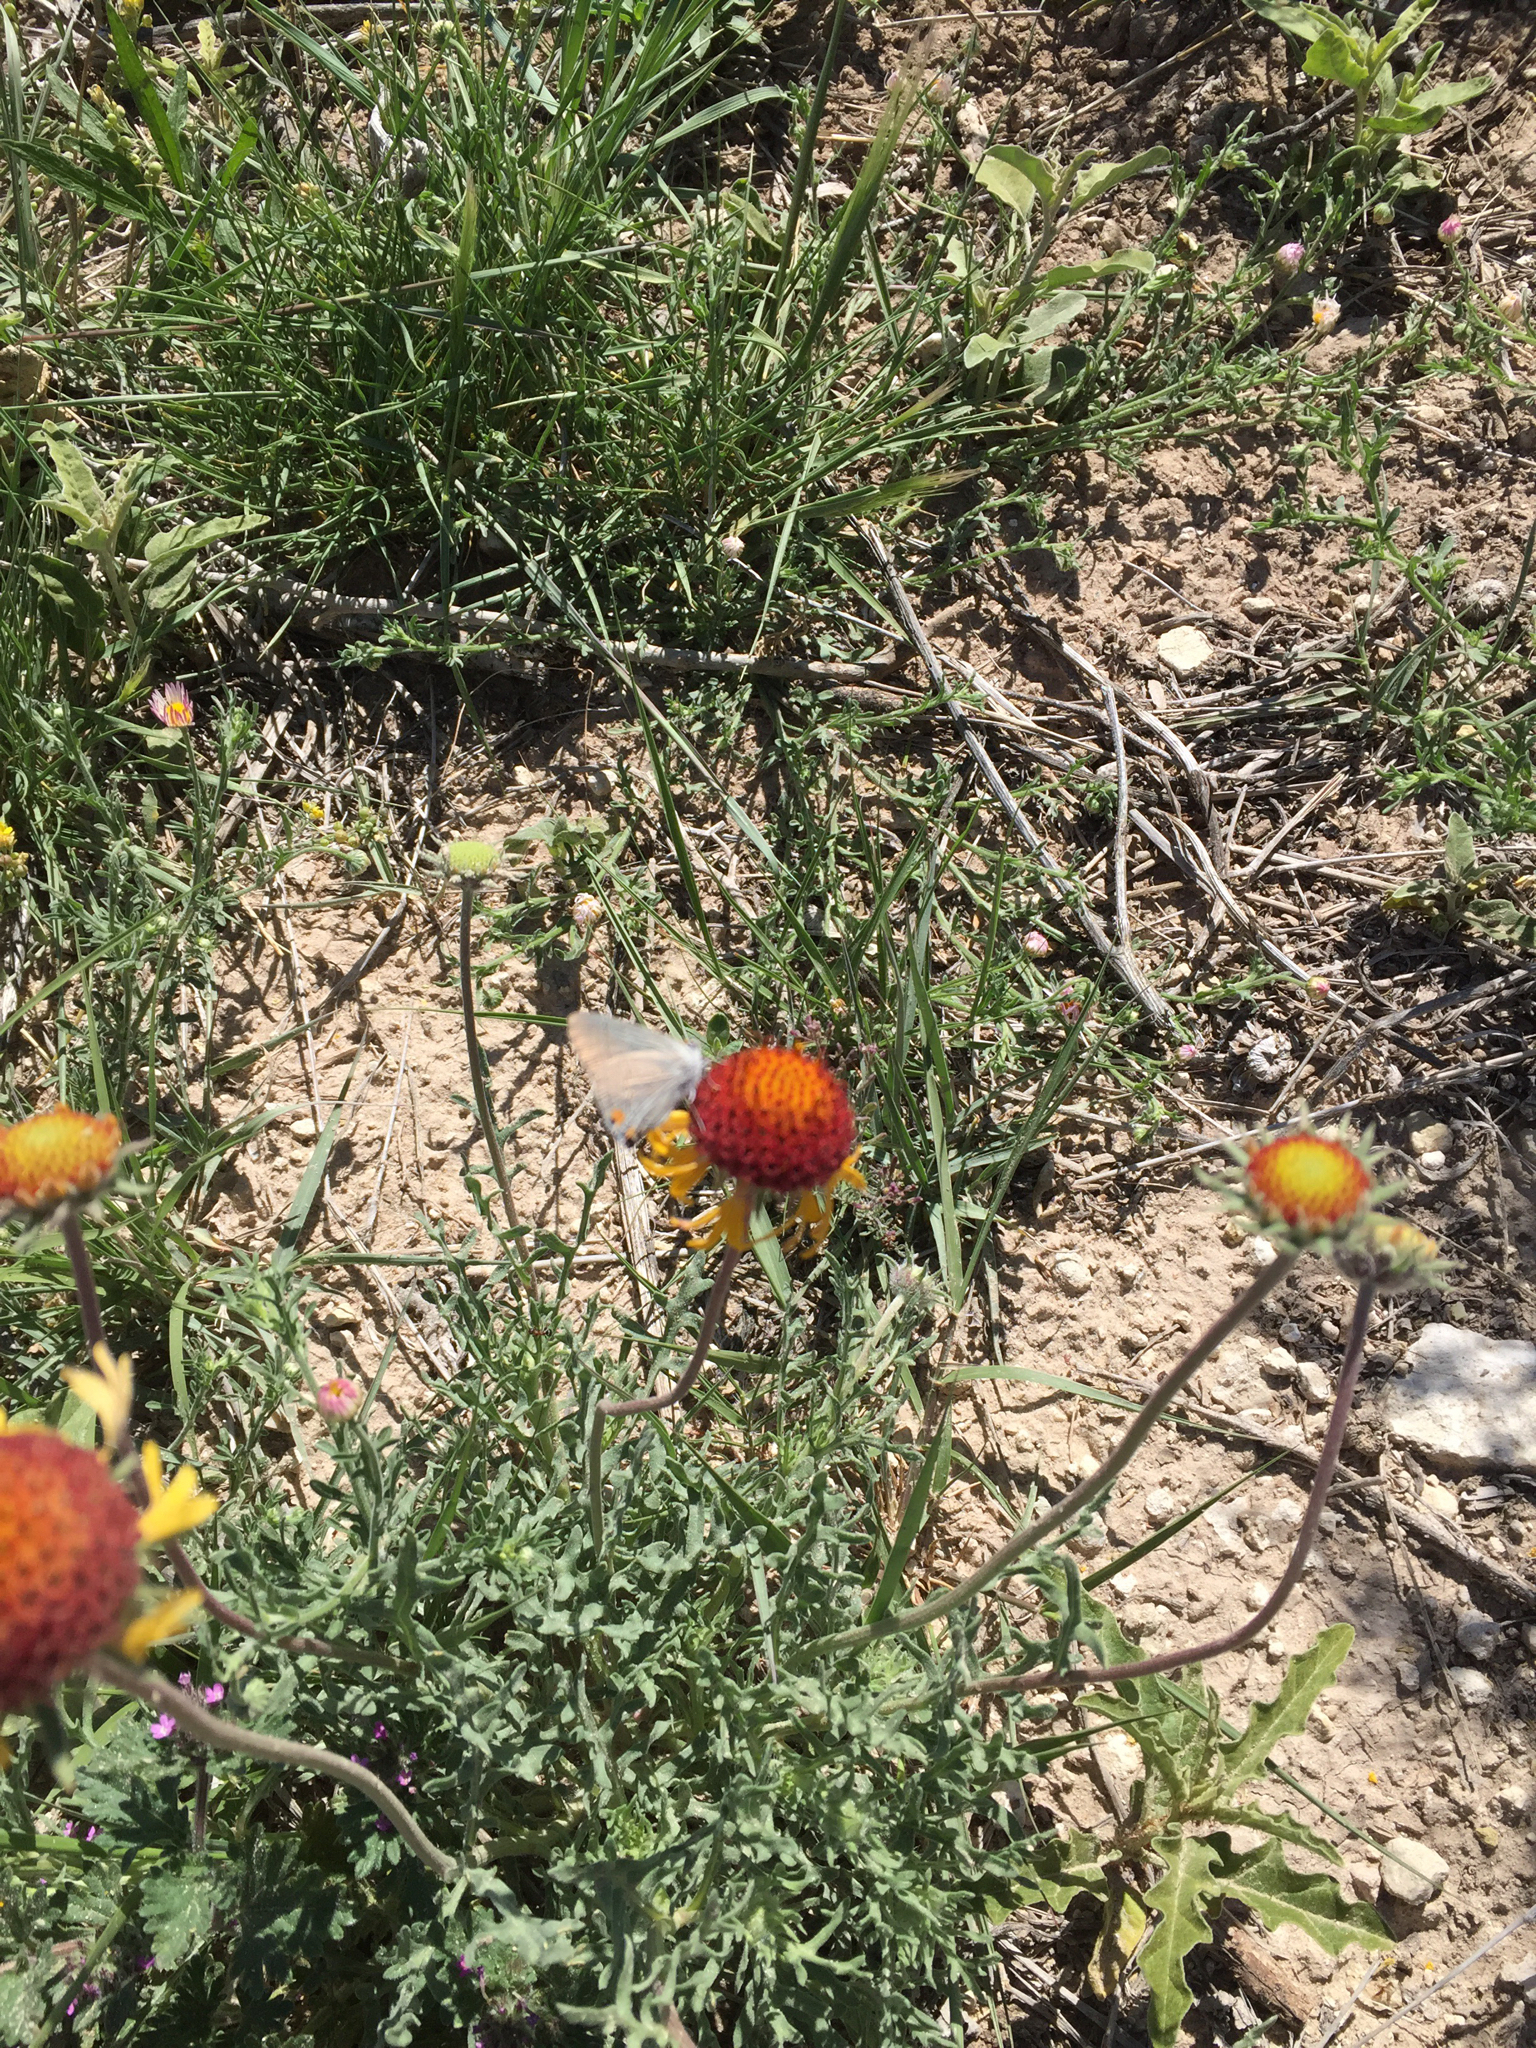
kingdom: Animalia
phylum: Arthropoda
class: Insecta
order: Lepidoptera
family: Lycaenidae
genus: Strymon
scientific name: Strymon melinus
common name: Gray hairstreak
